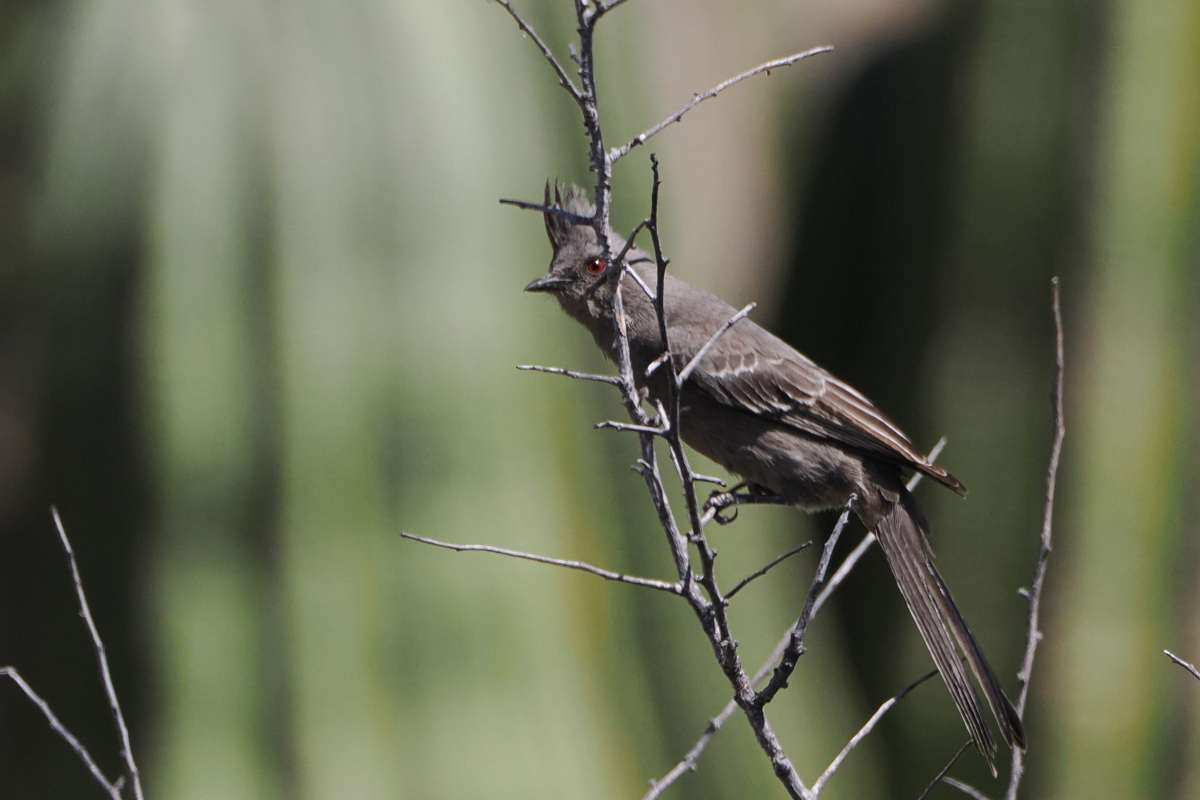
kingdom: Animalia
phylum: Chordata
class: Aves
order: Passeriformes
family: Ptilogonatidae
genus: Phainopepla
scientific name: Phainopepla nitens
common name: Phainopepla
